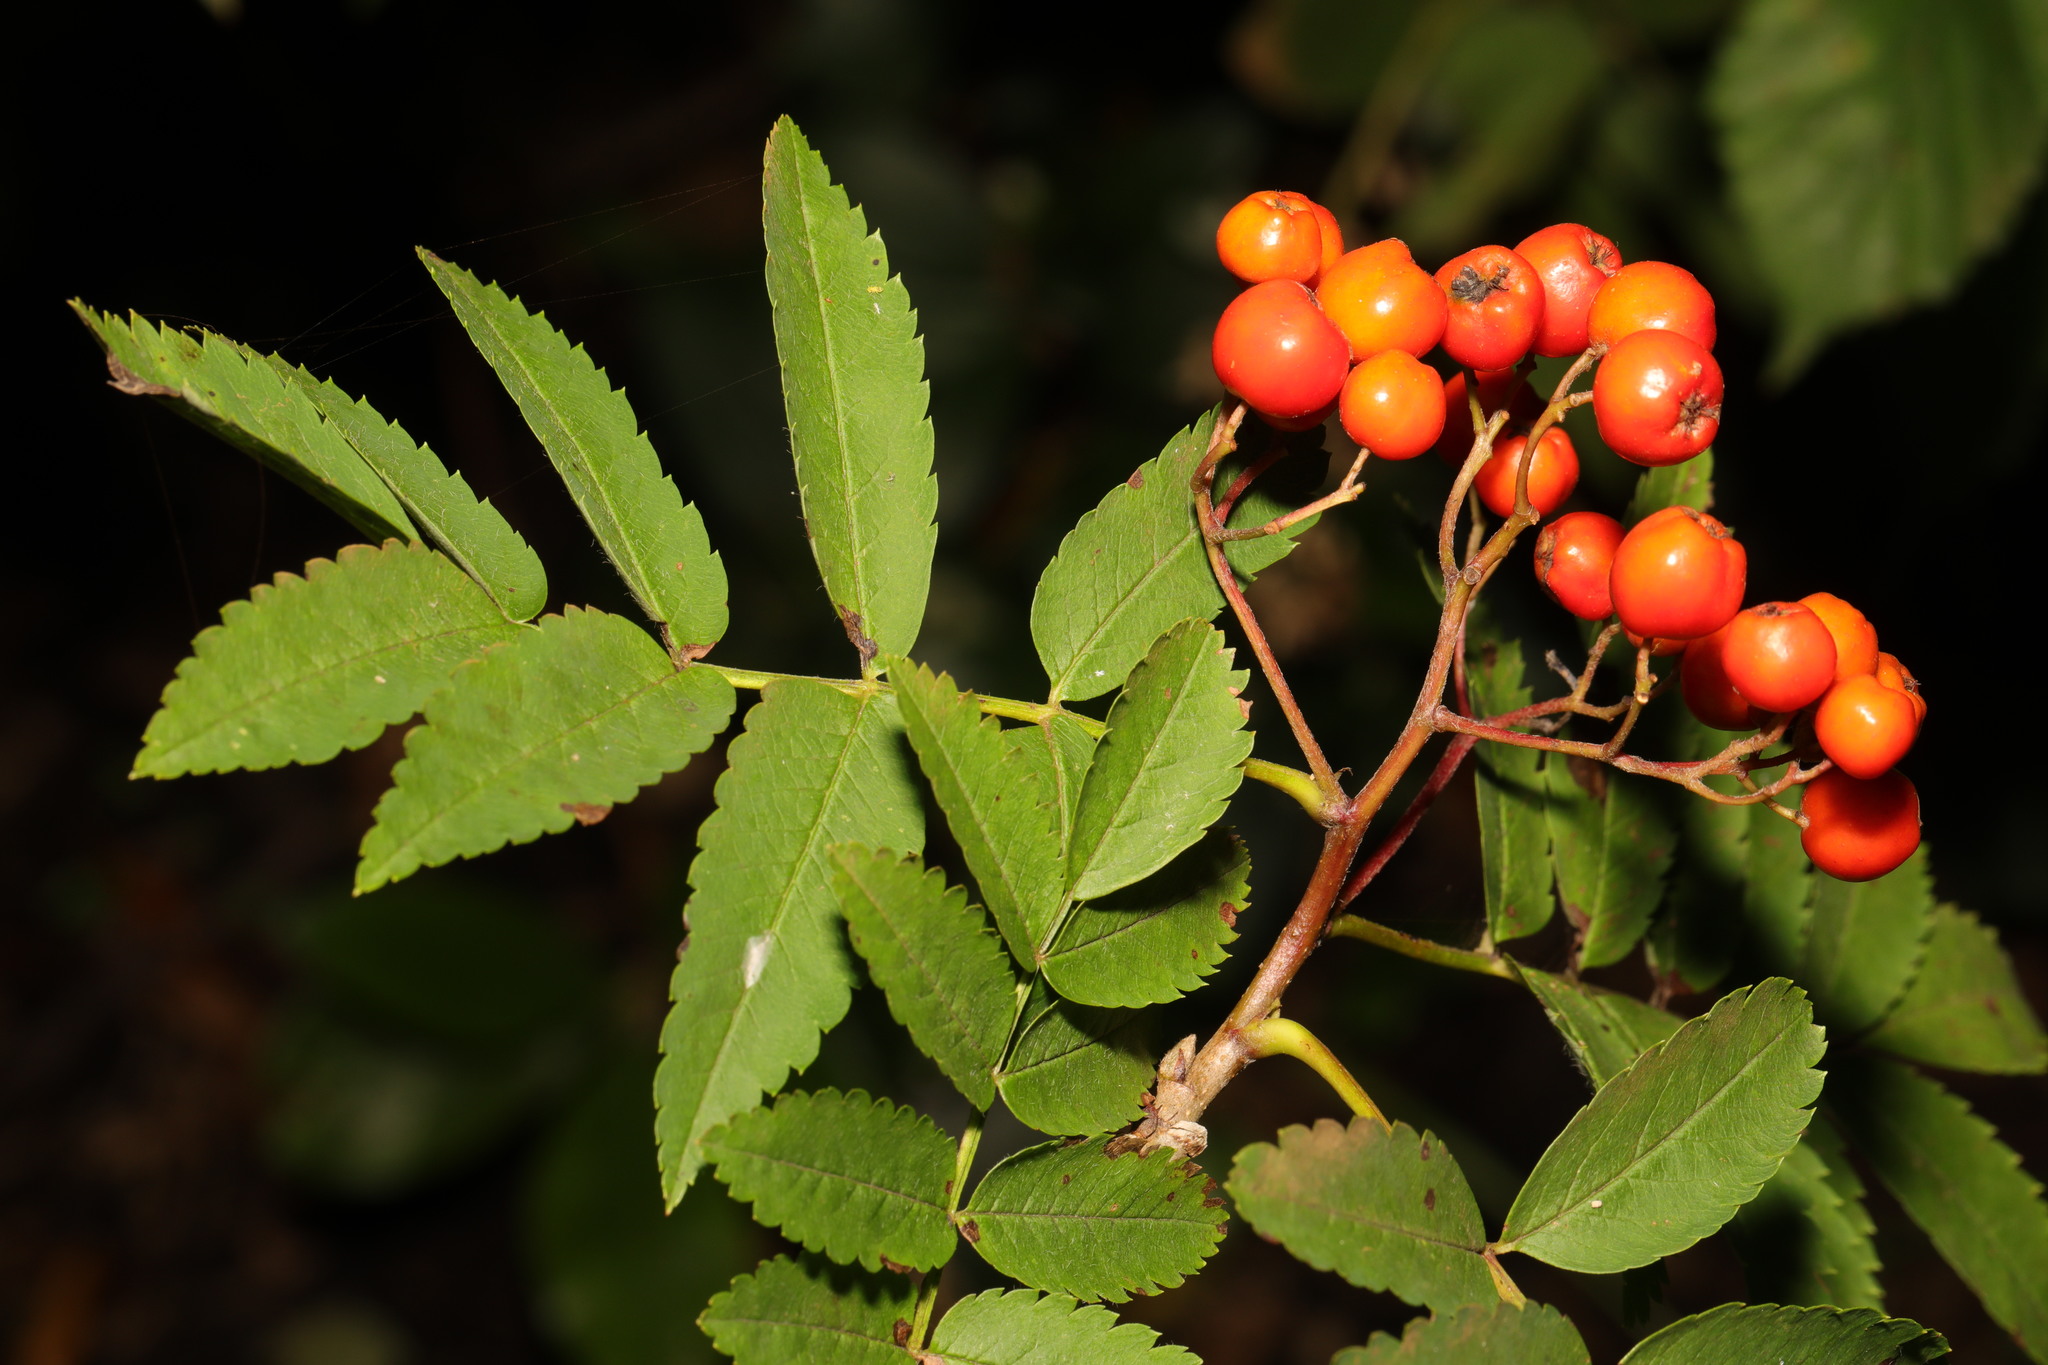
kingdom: Plantae
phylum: Tracheophyta
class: Magnoliopsida
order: Rosales
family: Rosaceae
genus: Sorbus
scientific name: Sorbus aucuparia
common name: Rowan
